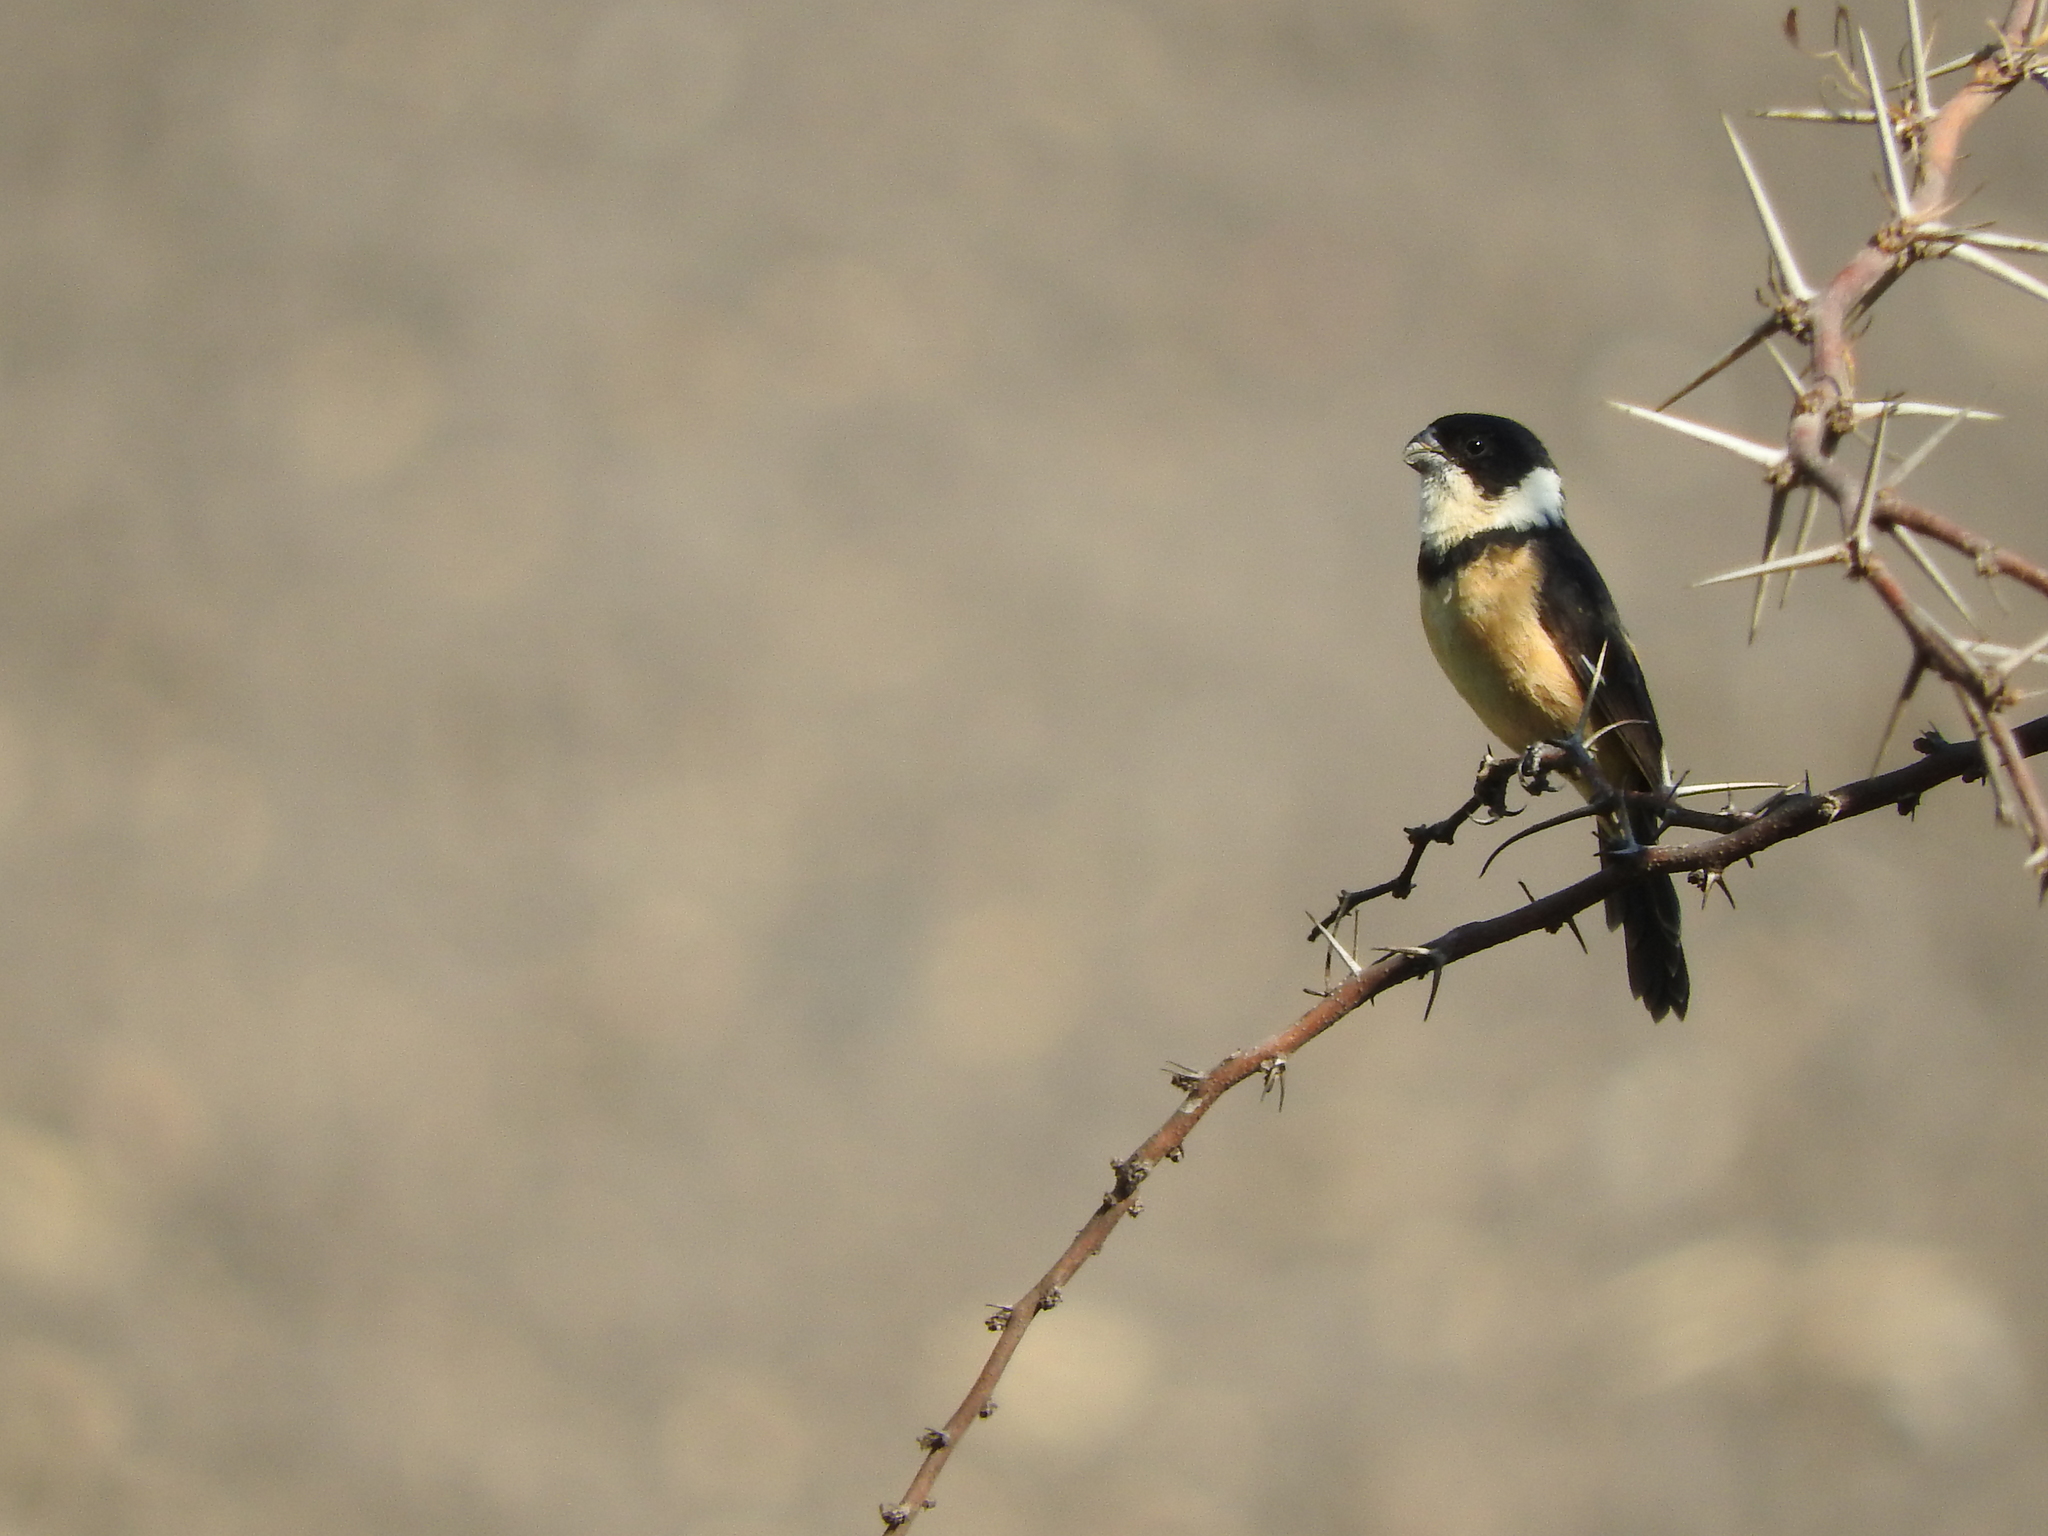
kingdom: Animalia
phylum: Chordata
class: Aves
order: Passeriformes
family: Thraupidae
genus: Sporophila
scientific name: Sporophila torqueola
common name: White-collared seedeater
